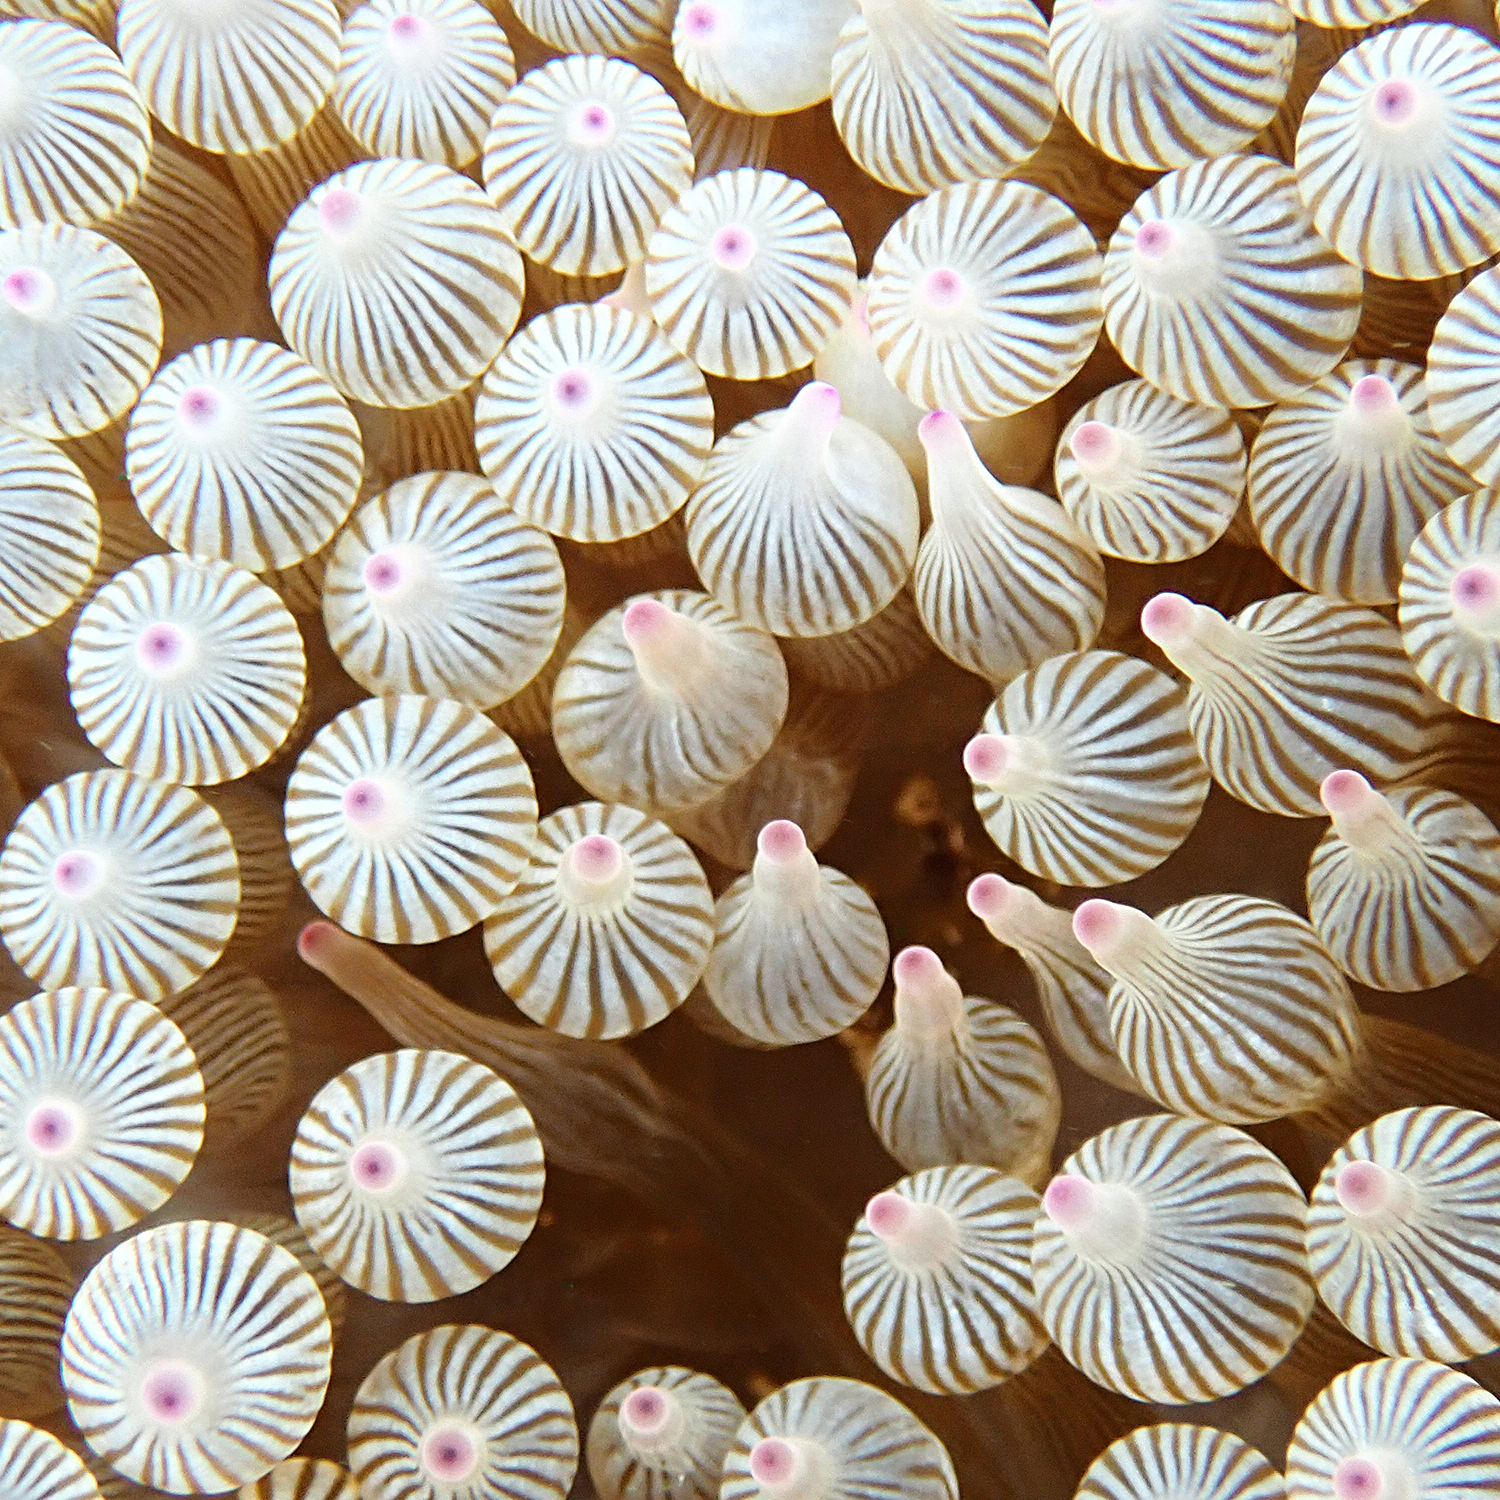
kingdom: Animalia
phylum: Cnidaria
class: Anthozoa
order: Actiniaria
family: Actiniidae
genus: Entacmaea
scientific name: Entacmaea quadricolor
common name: Bulb tentacle sea anemone
